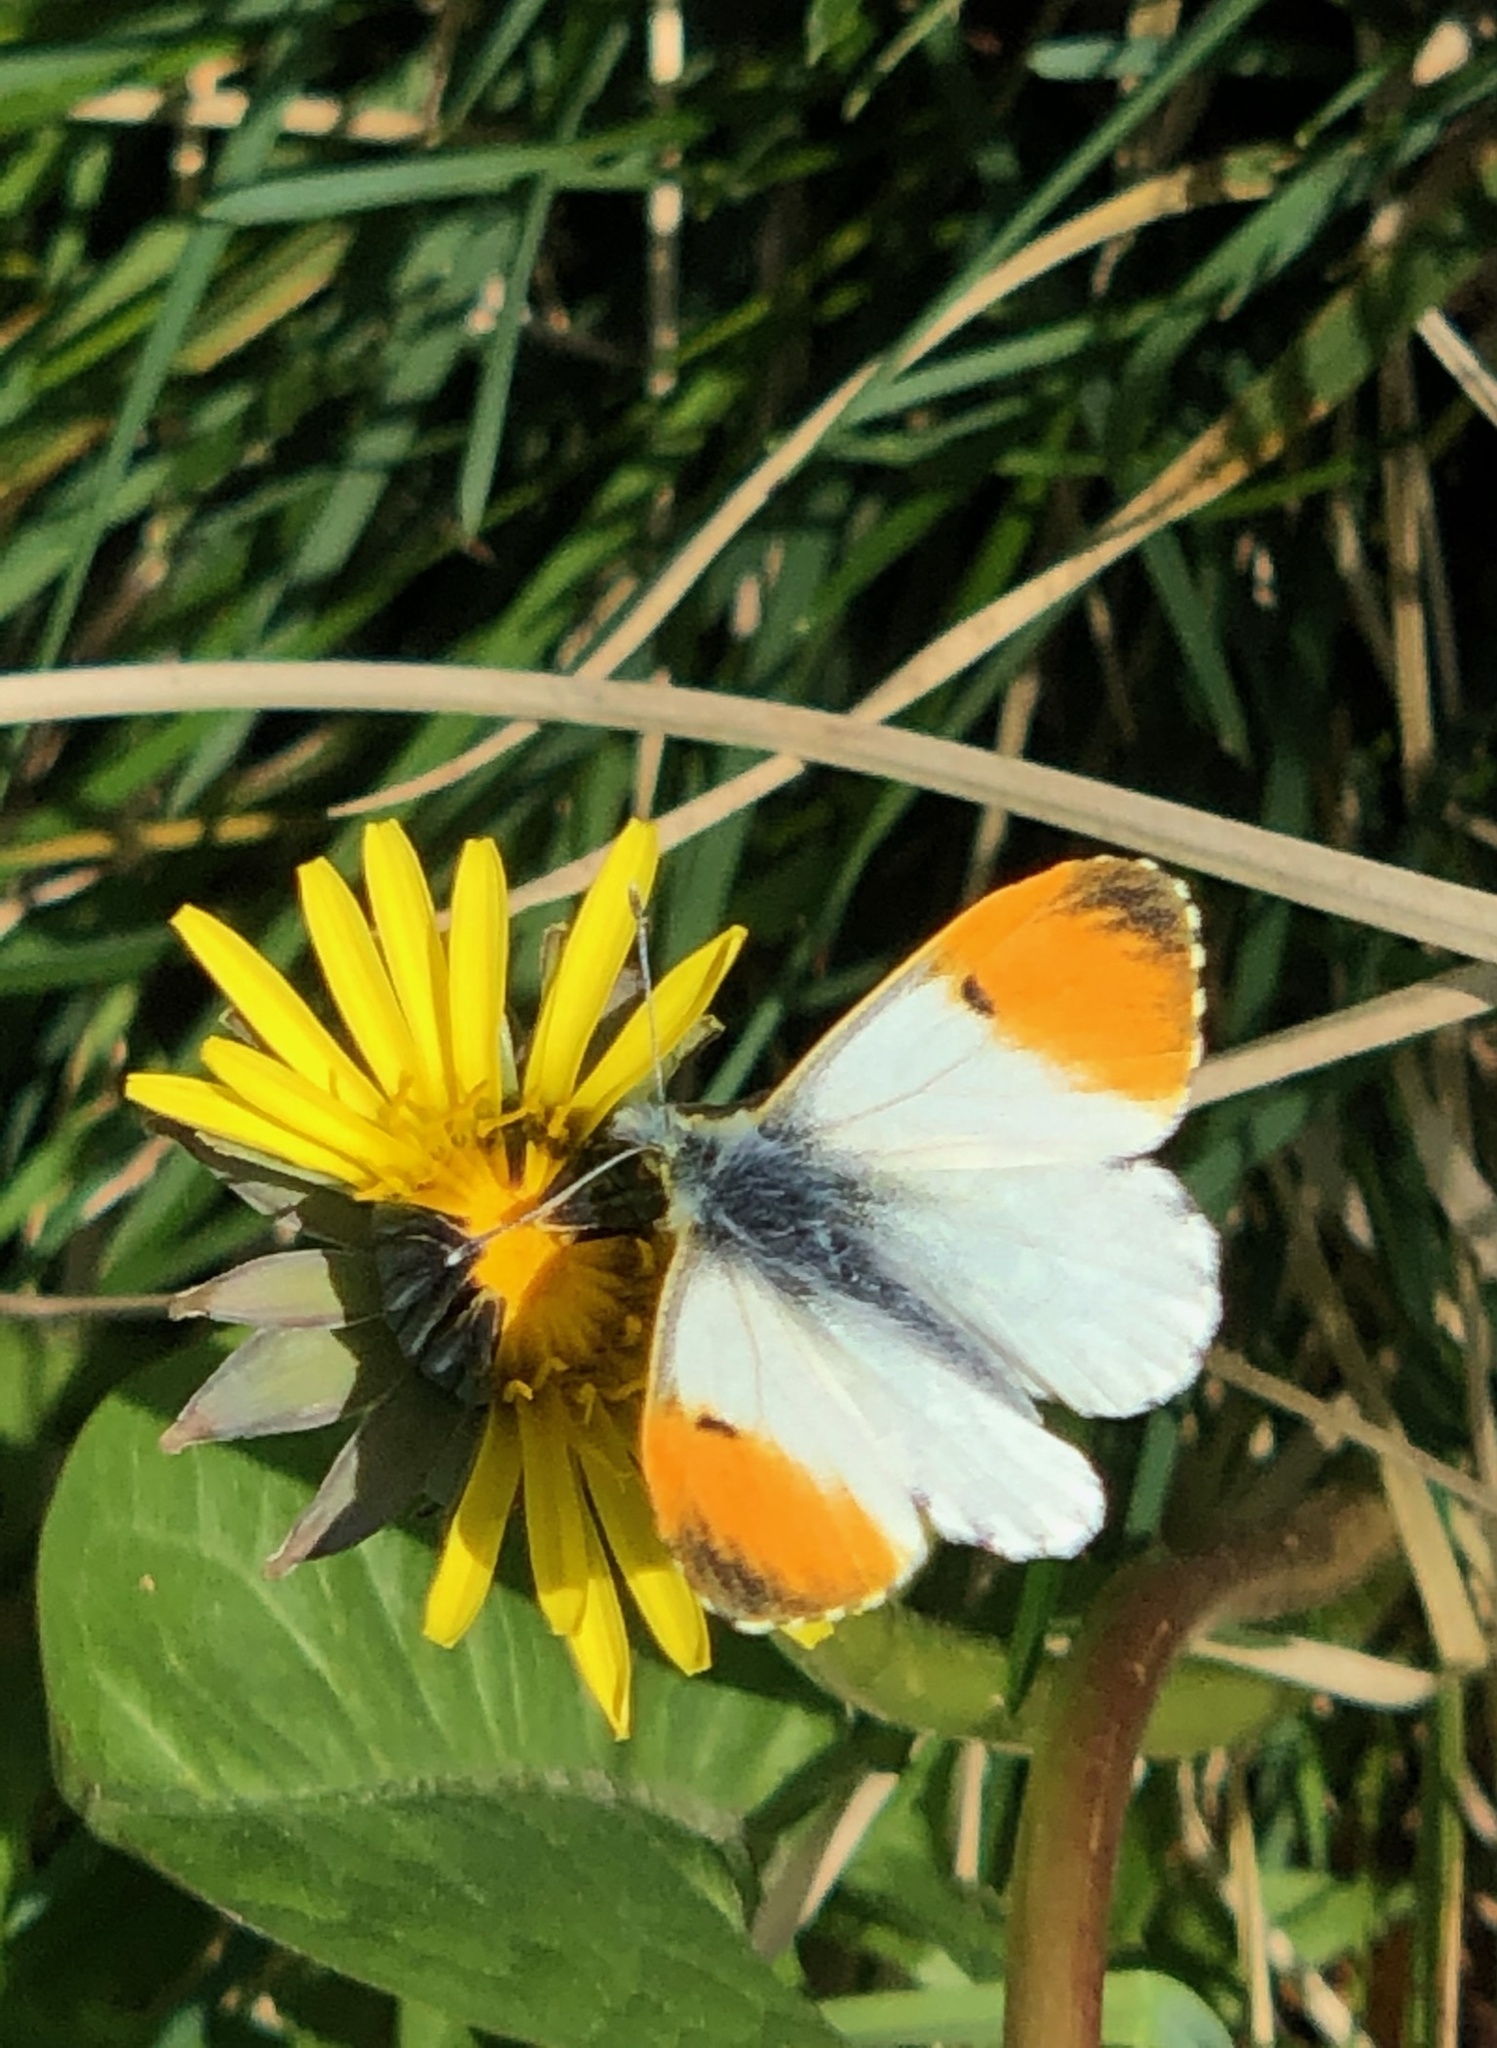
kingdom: Animalia
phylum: Arthropoda
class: Insecta
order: Lepidoptera
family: Pieridae
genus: Anthocharis
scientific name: Anthocharis cardamines
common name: Orange-tip
